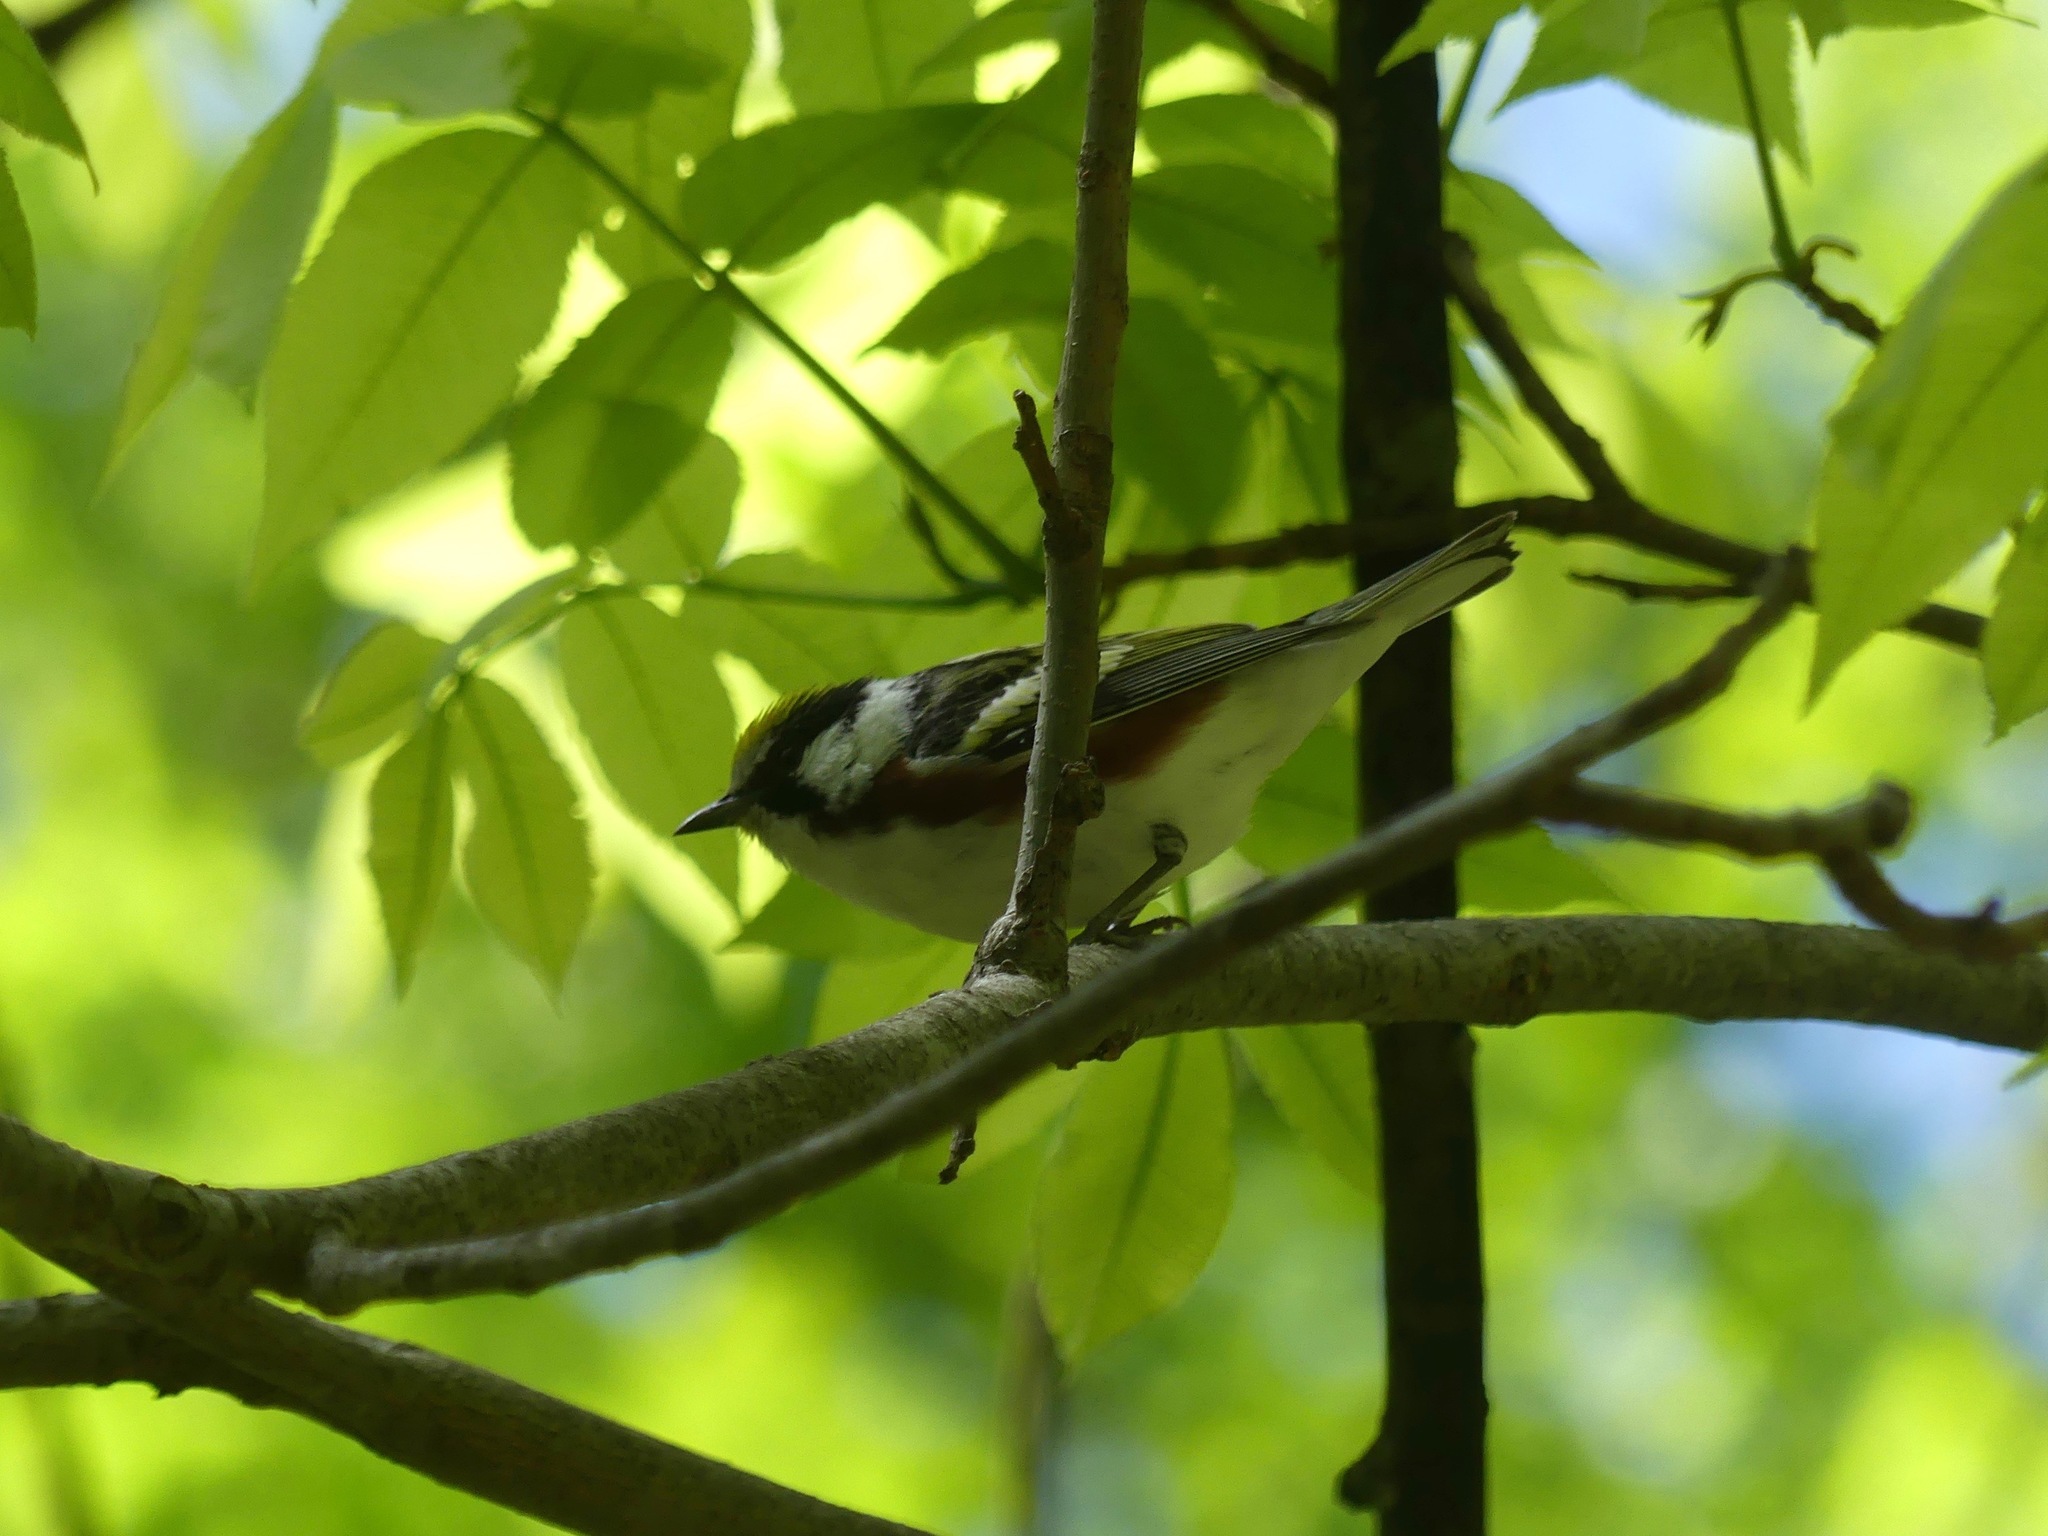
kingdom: Animalia
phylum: Chordata
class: Aves
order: Passeriformes
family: Parulidae
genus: Setophaga
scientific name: Setophaga pensylvanica
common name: Chestnut-sided warbler
